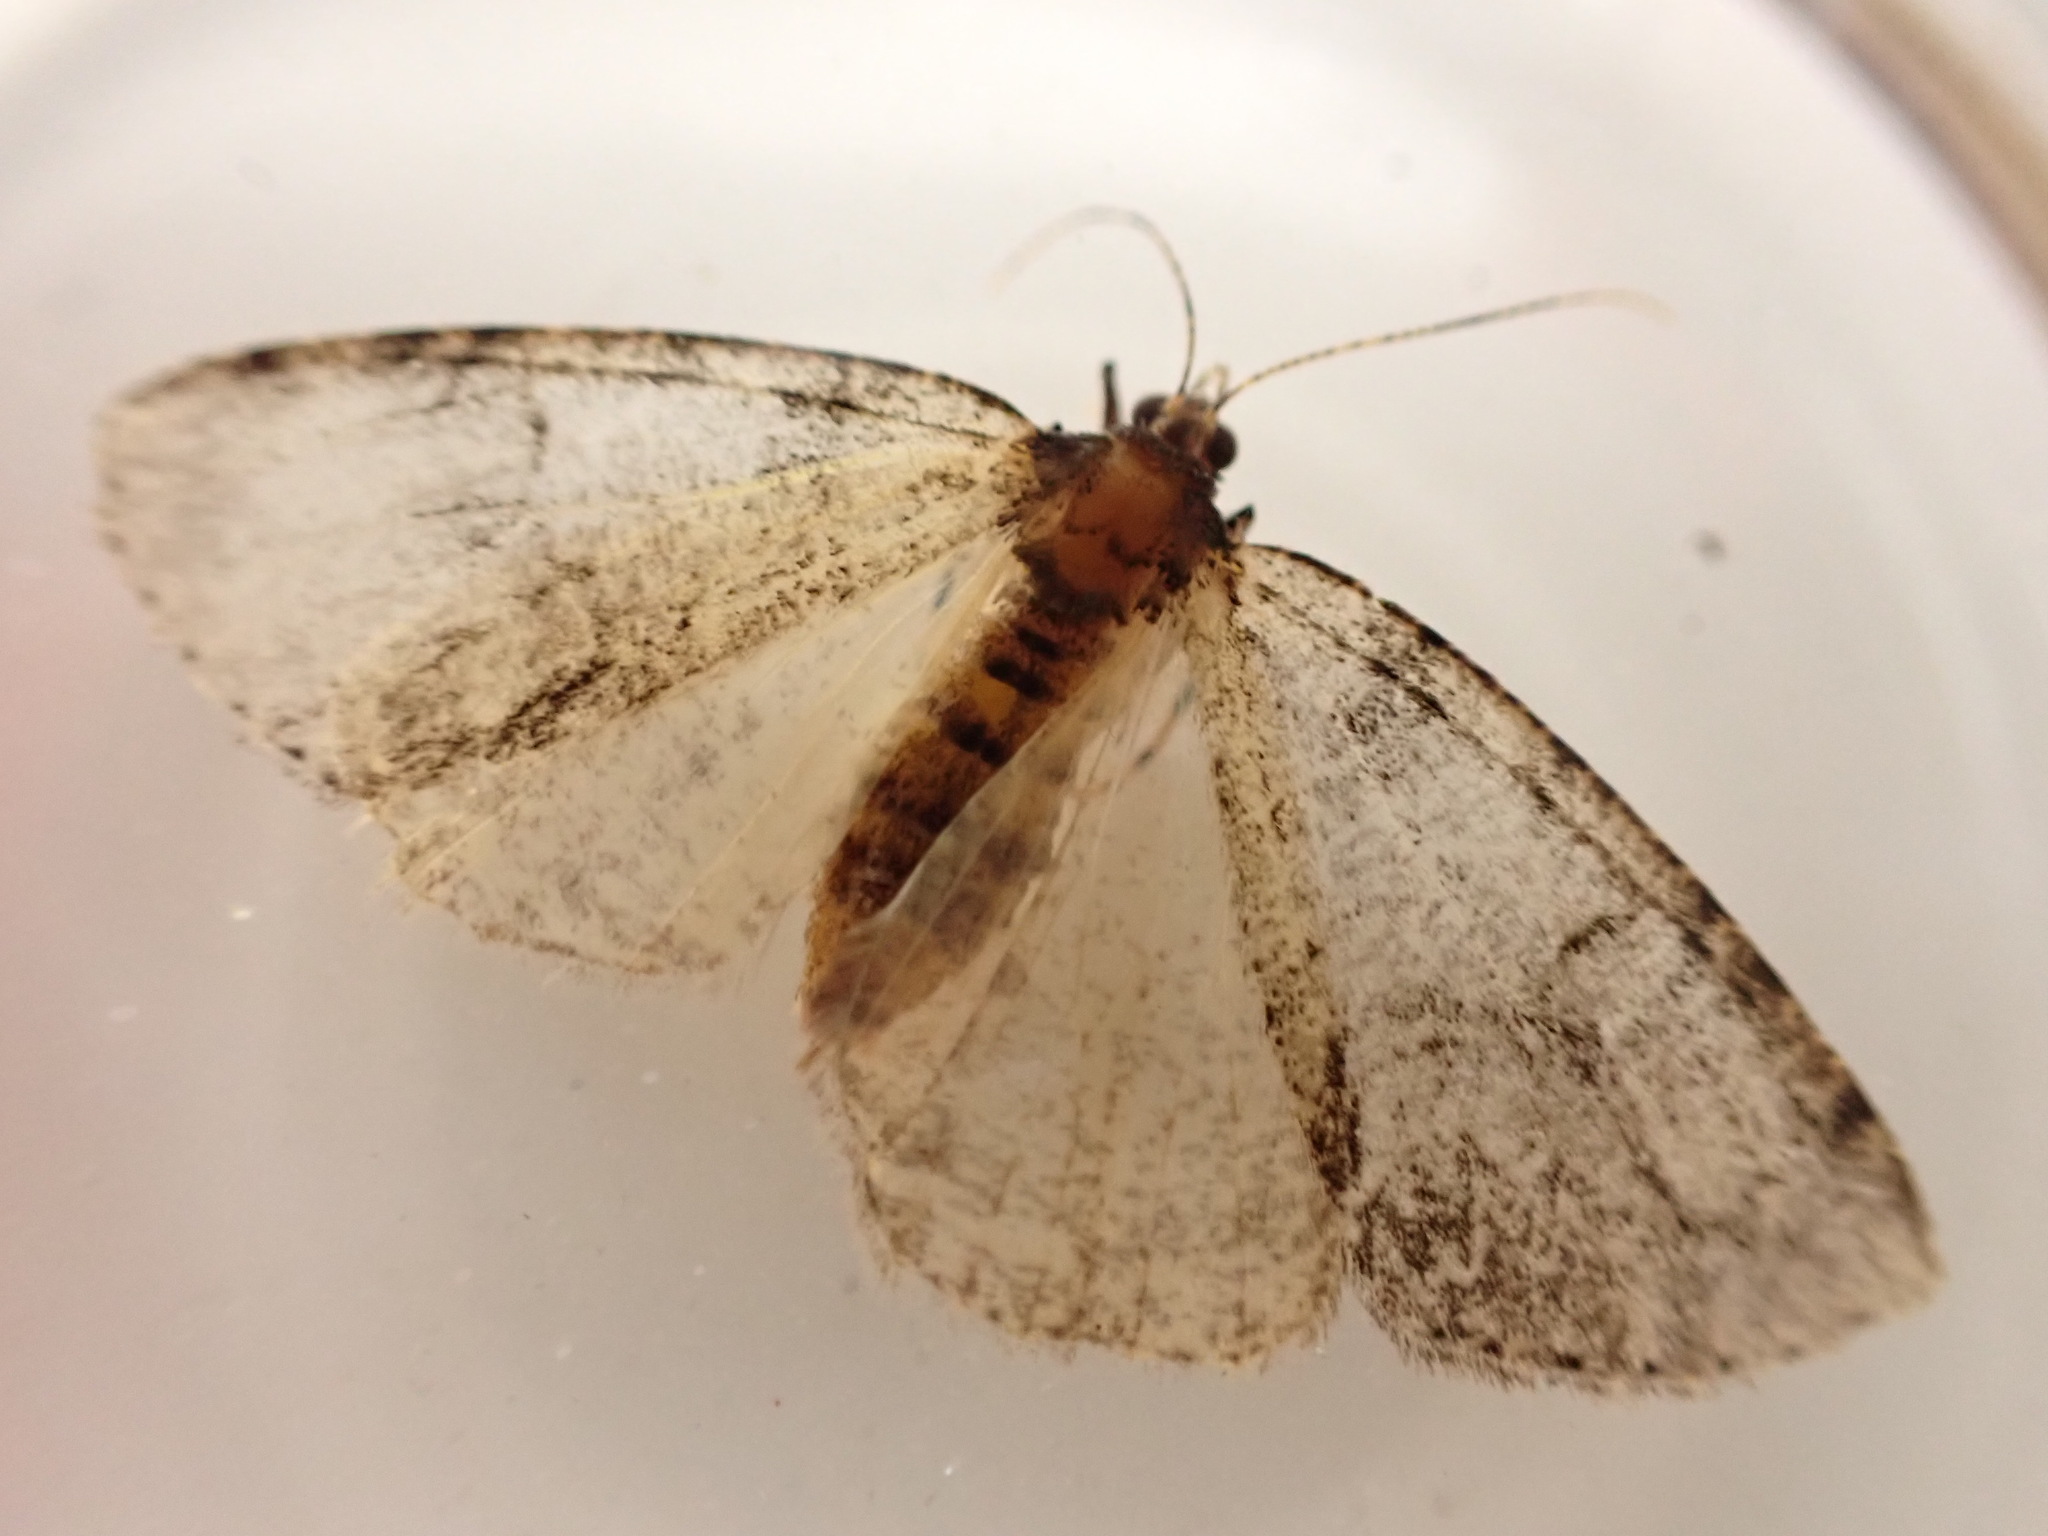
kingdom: Animalia
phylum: Arthropoda
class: Insecta
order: Lepidoptera
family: Geometridae
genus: Pseudocoremia
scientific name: Pseudocoremia suavis
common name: Common forest looper
